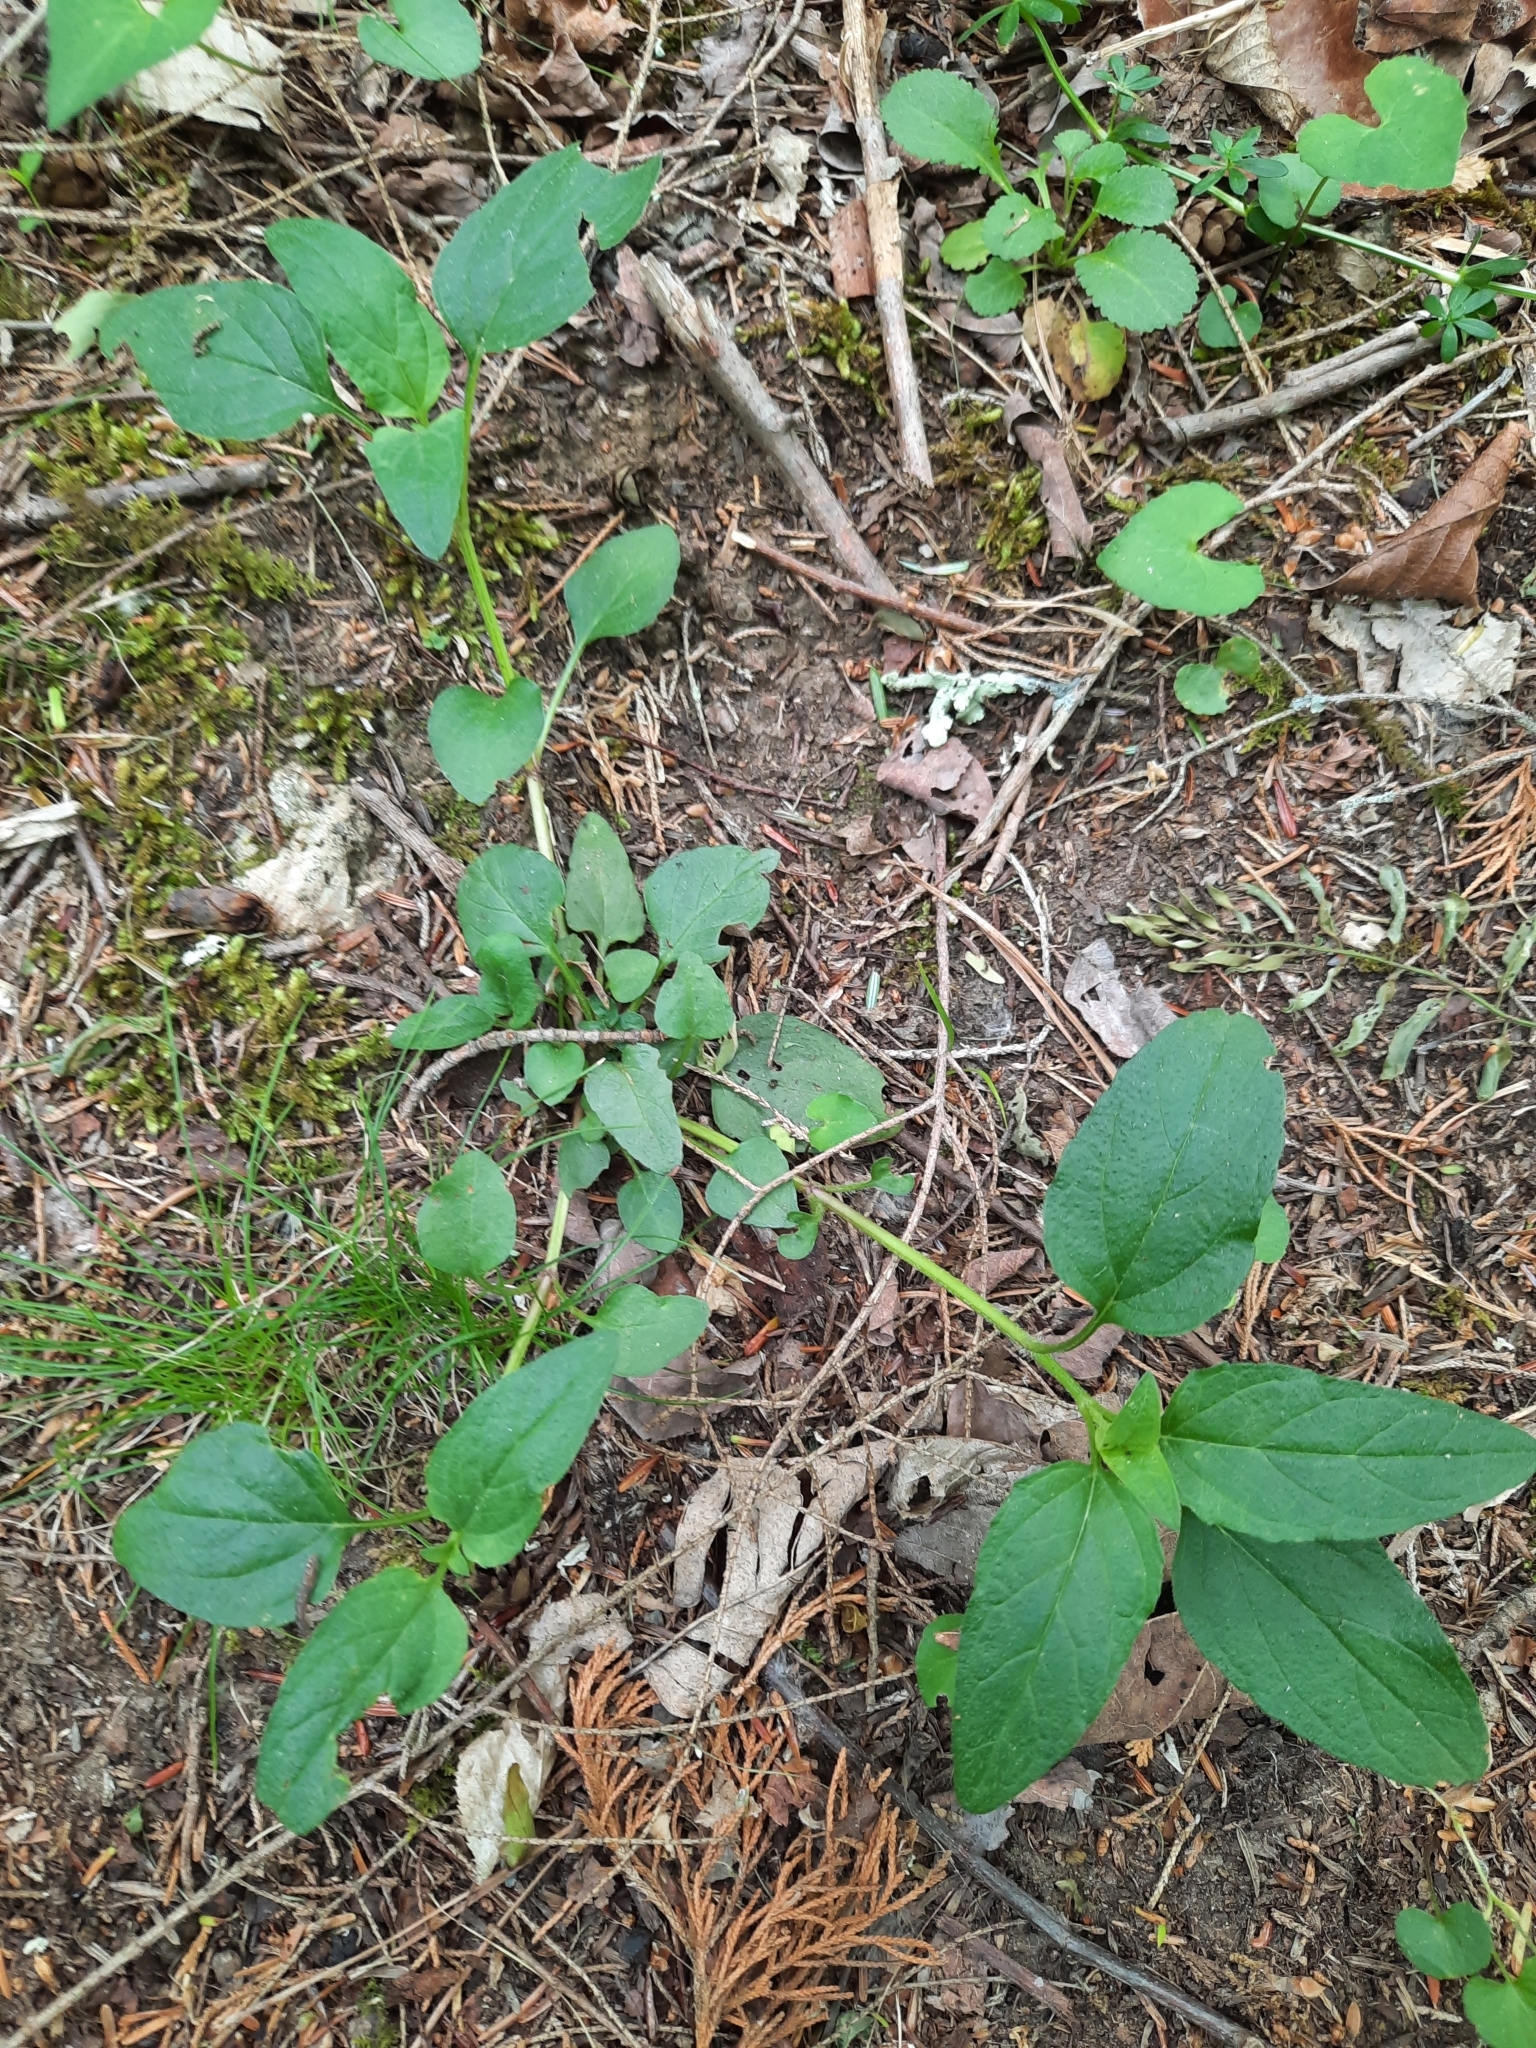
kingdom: Plantae
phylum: Tracheophyta
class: Magnoliopsida
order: Lamiales
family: Lamiaceae
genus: Prunella
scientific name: Prunella vulgaris
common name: Heal-all
